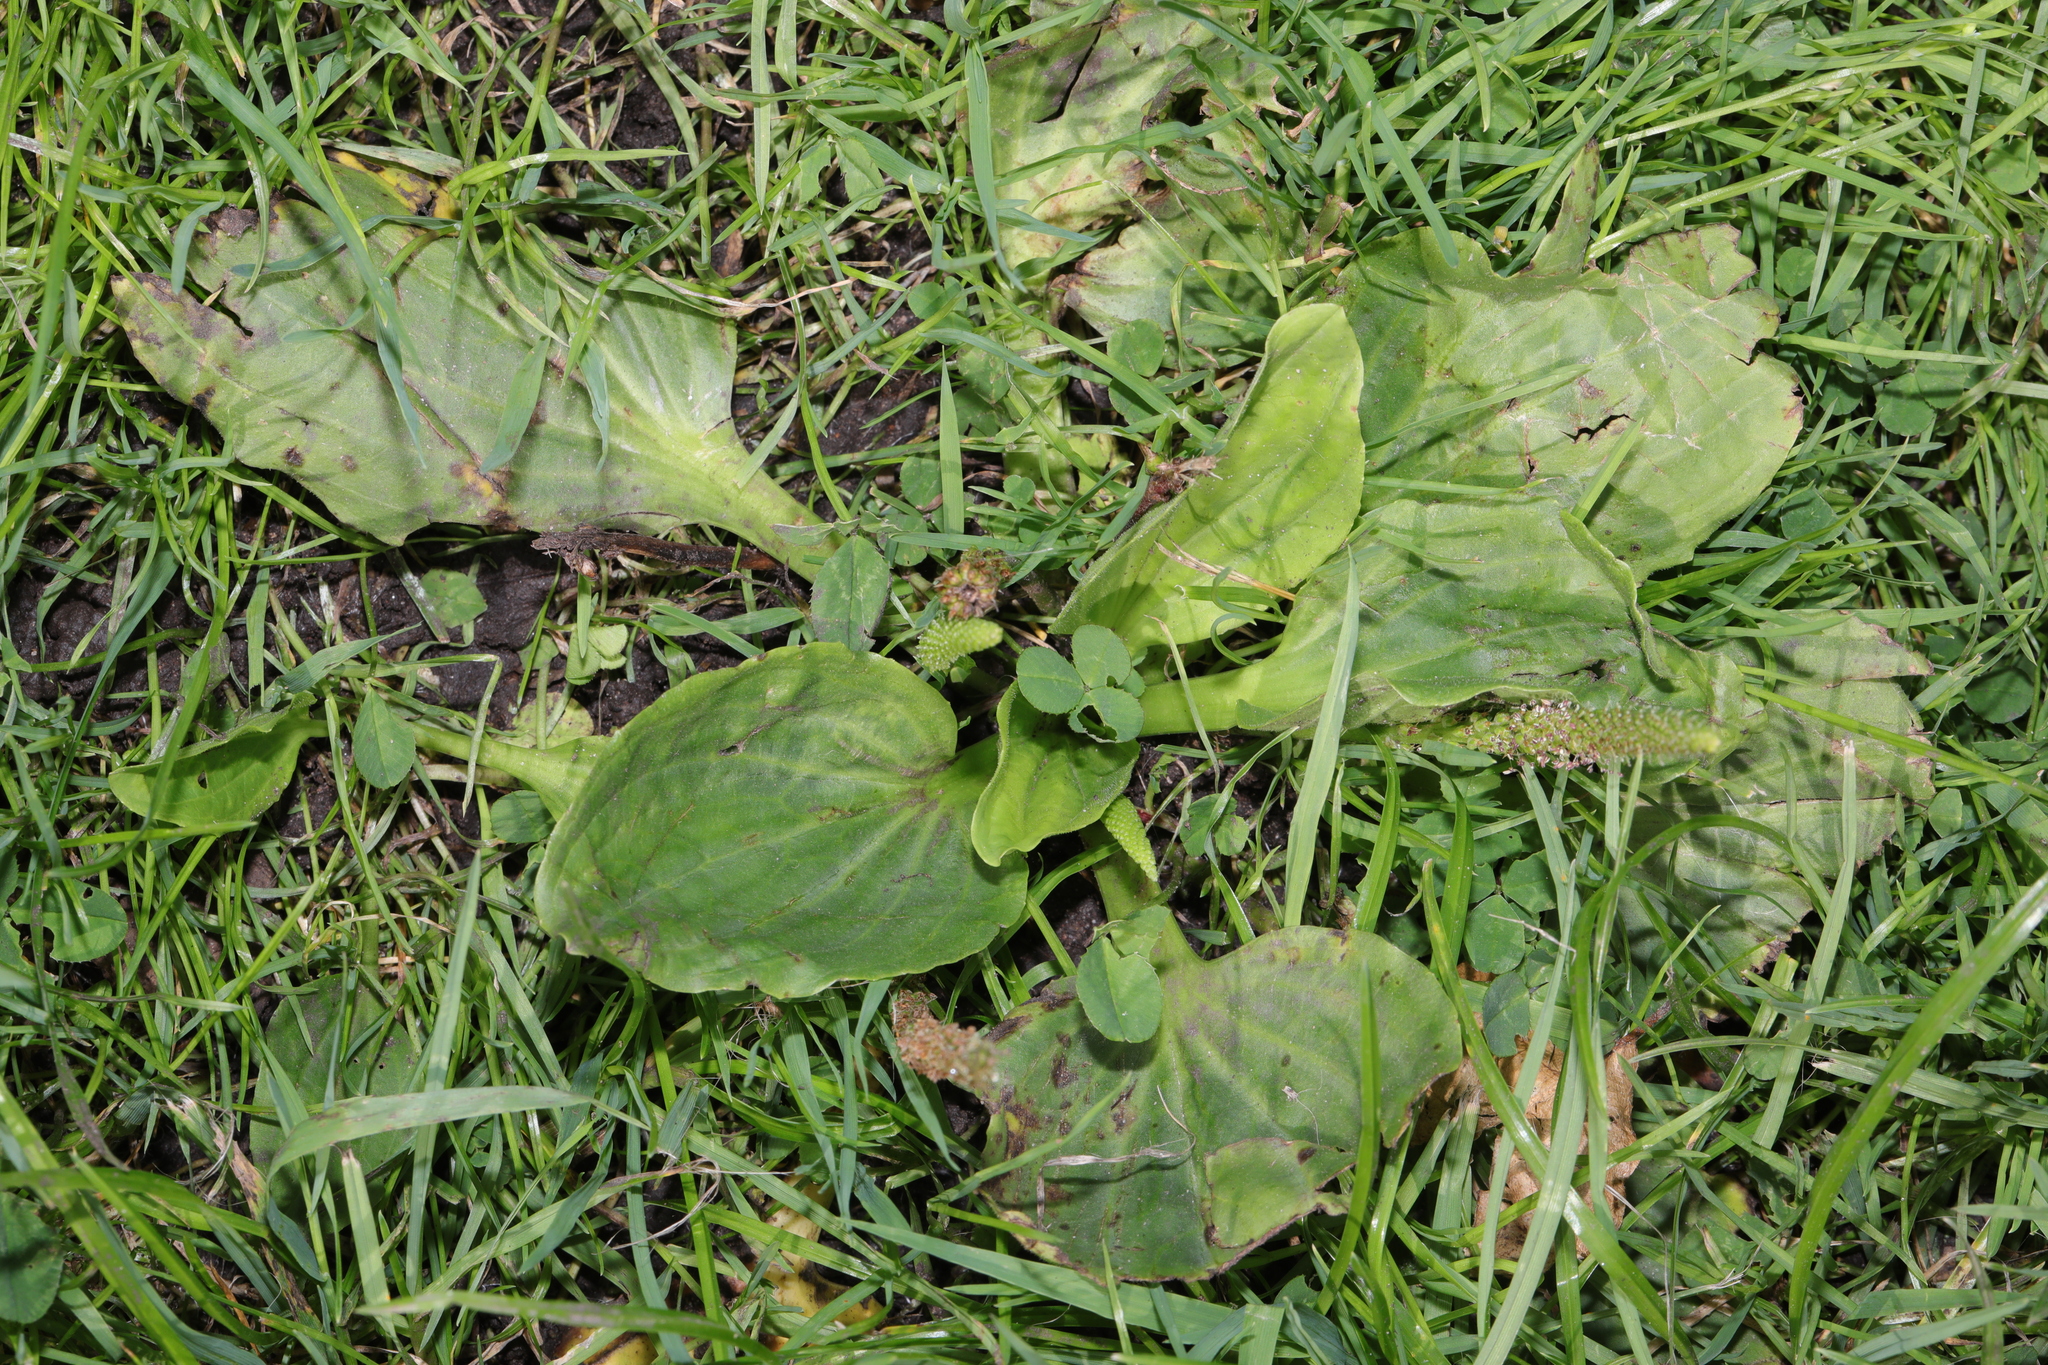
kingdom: Plantae
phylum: Tracheophyta
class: Magnoliopsida
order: Lamiales
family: Plantaginaceae
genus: Plantago
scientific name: Plantago major
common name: Common plantain
